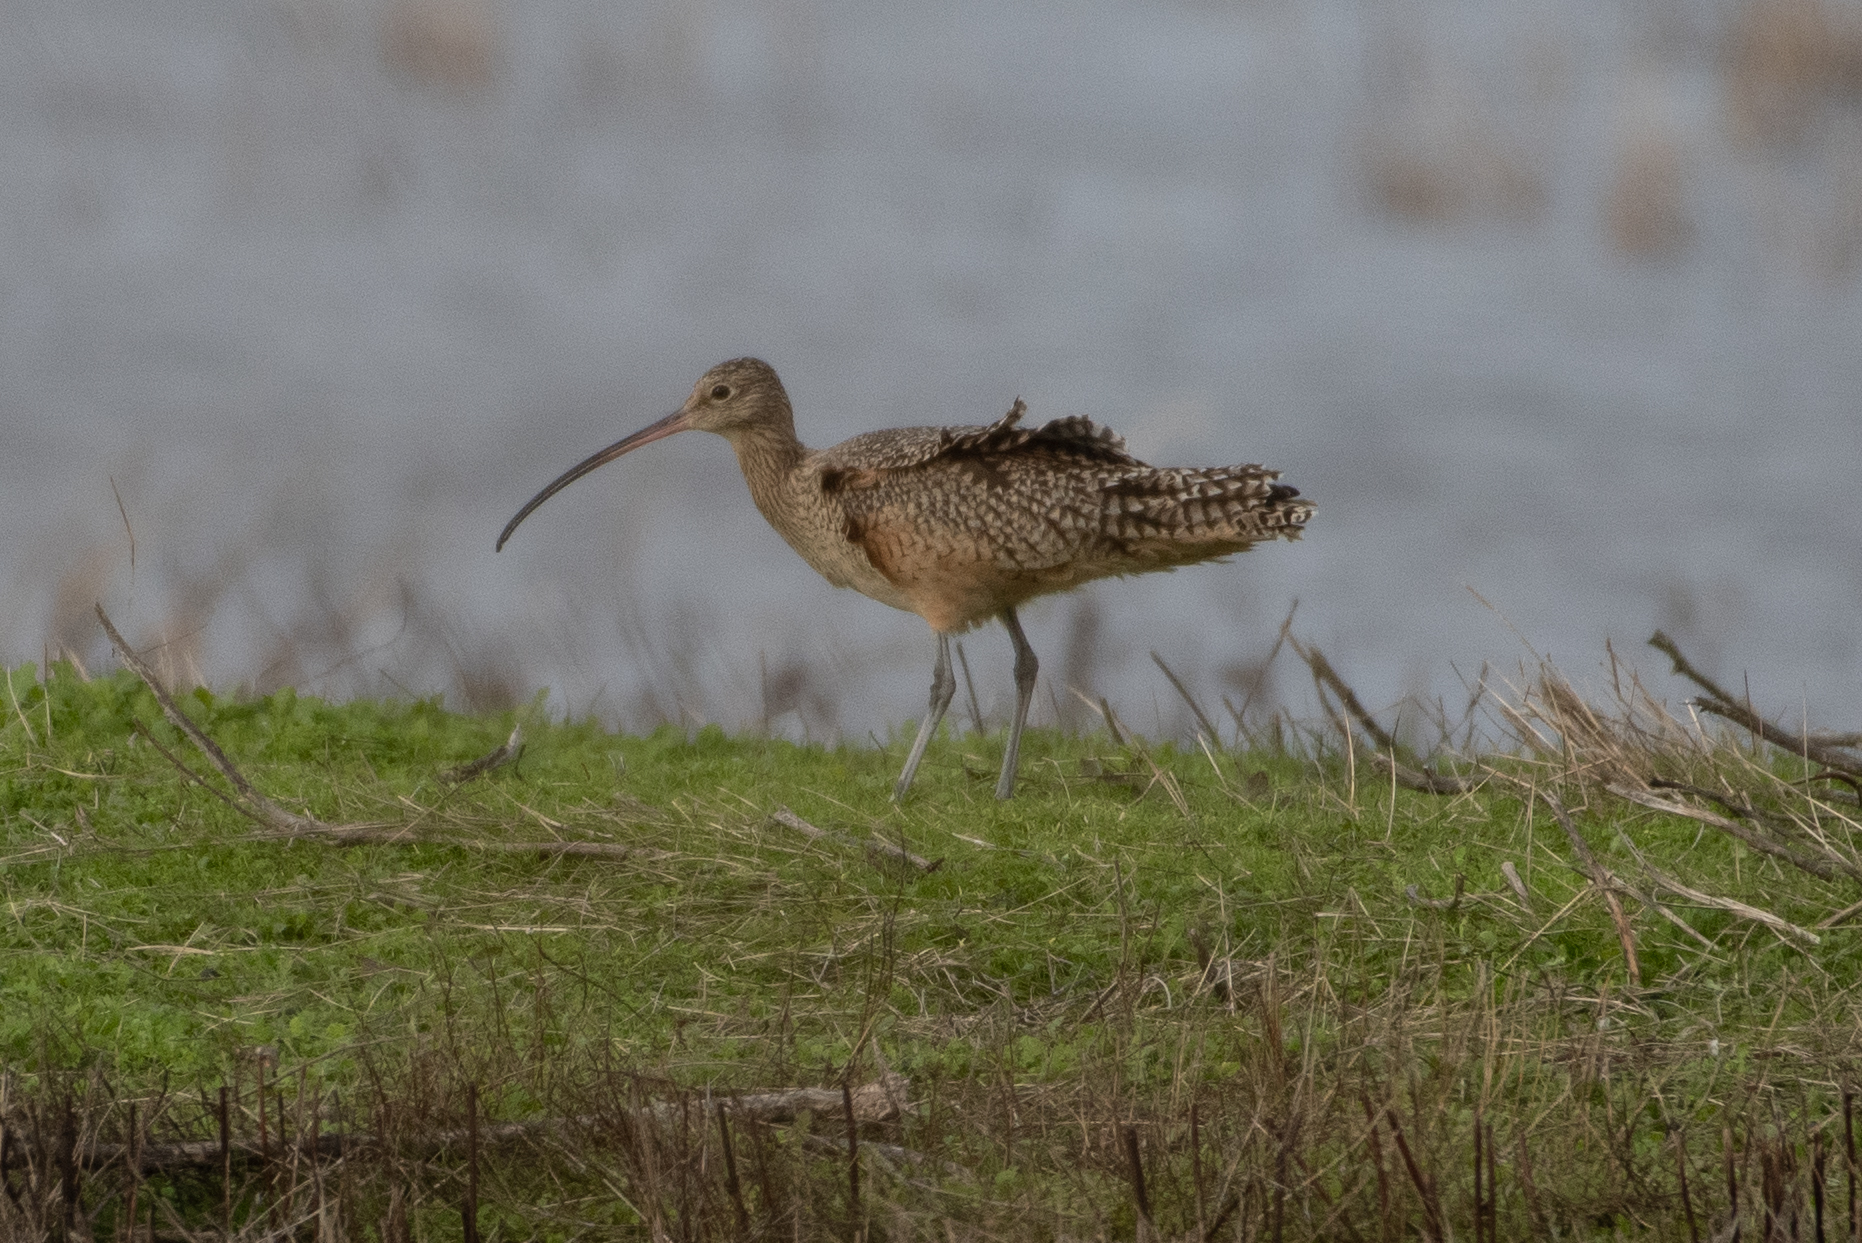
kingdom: Animalia
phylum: Chordata
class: Aves
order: Charadriiformes
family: Scolopacidae
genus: Numenius
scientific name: Numenius americanus
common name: Long-billed curlew
